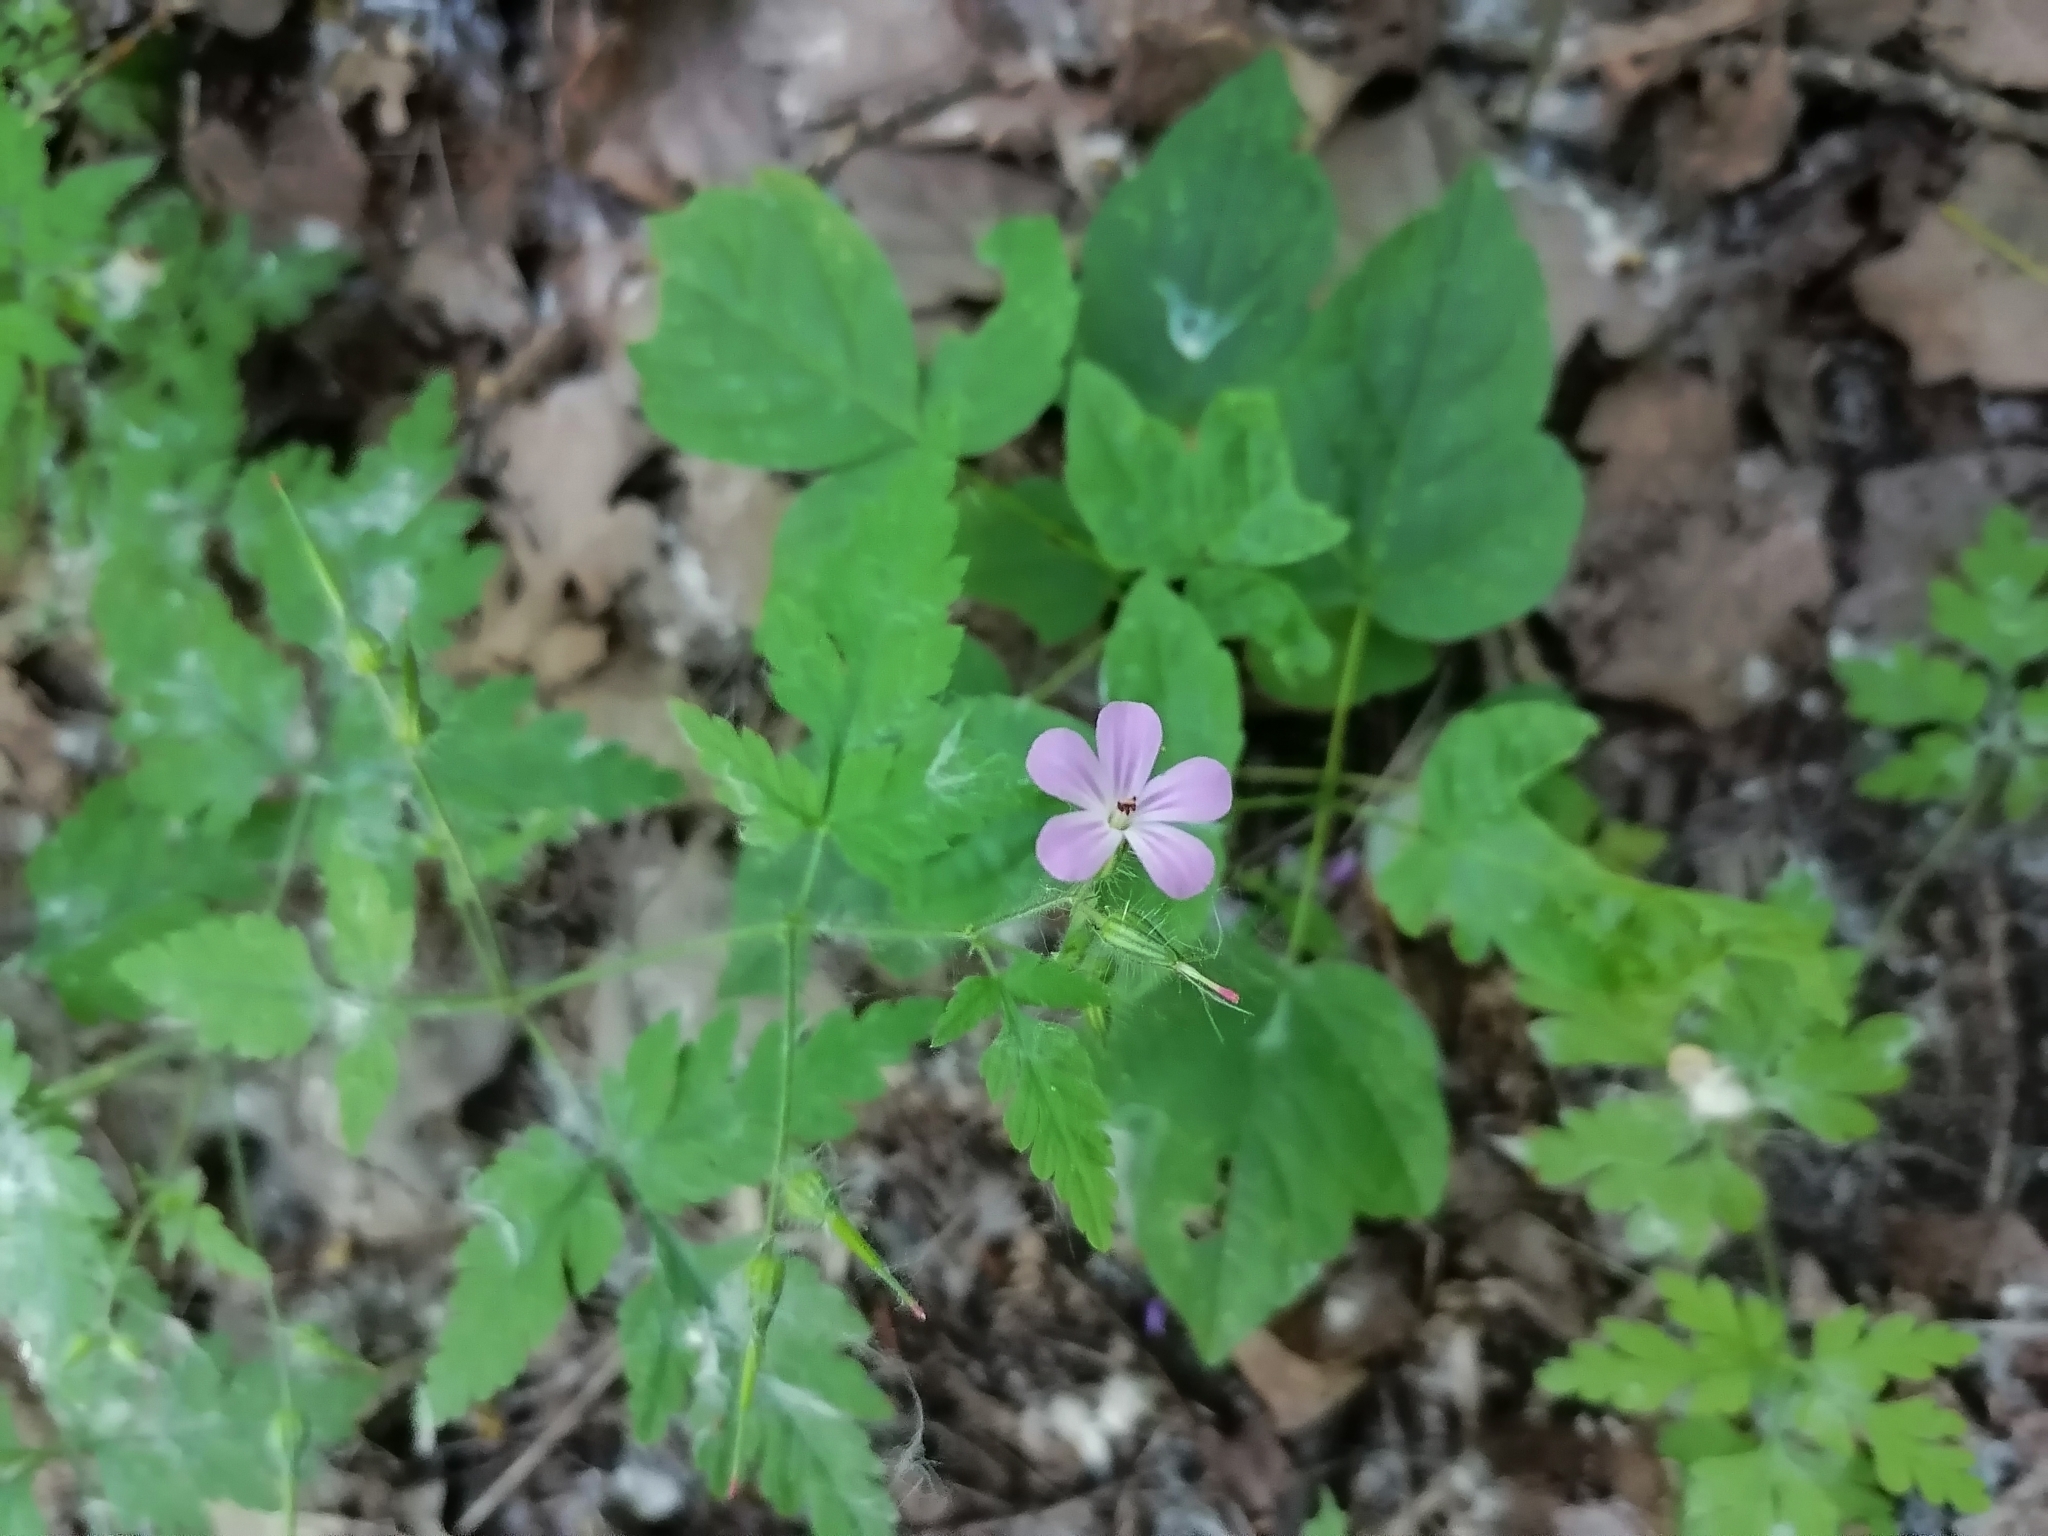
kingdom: Plantae
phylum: Tracheophyta
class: Magnoliopsida
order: Geraniales
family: Geraniaceae
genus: Geranium
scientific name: Geranium robertianum
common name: Herb-robert
